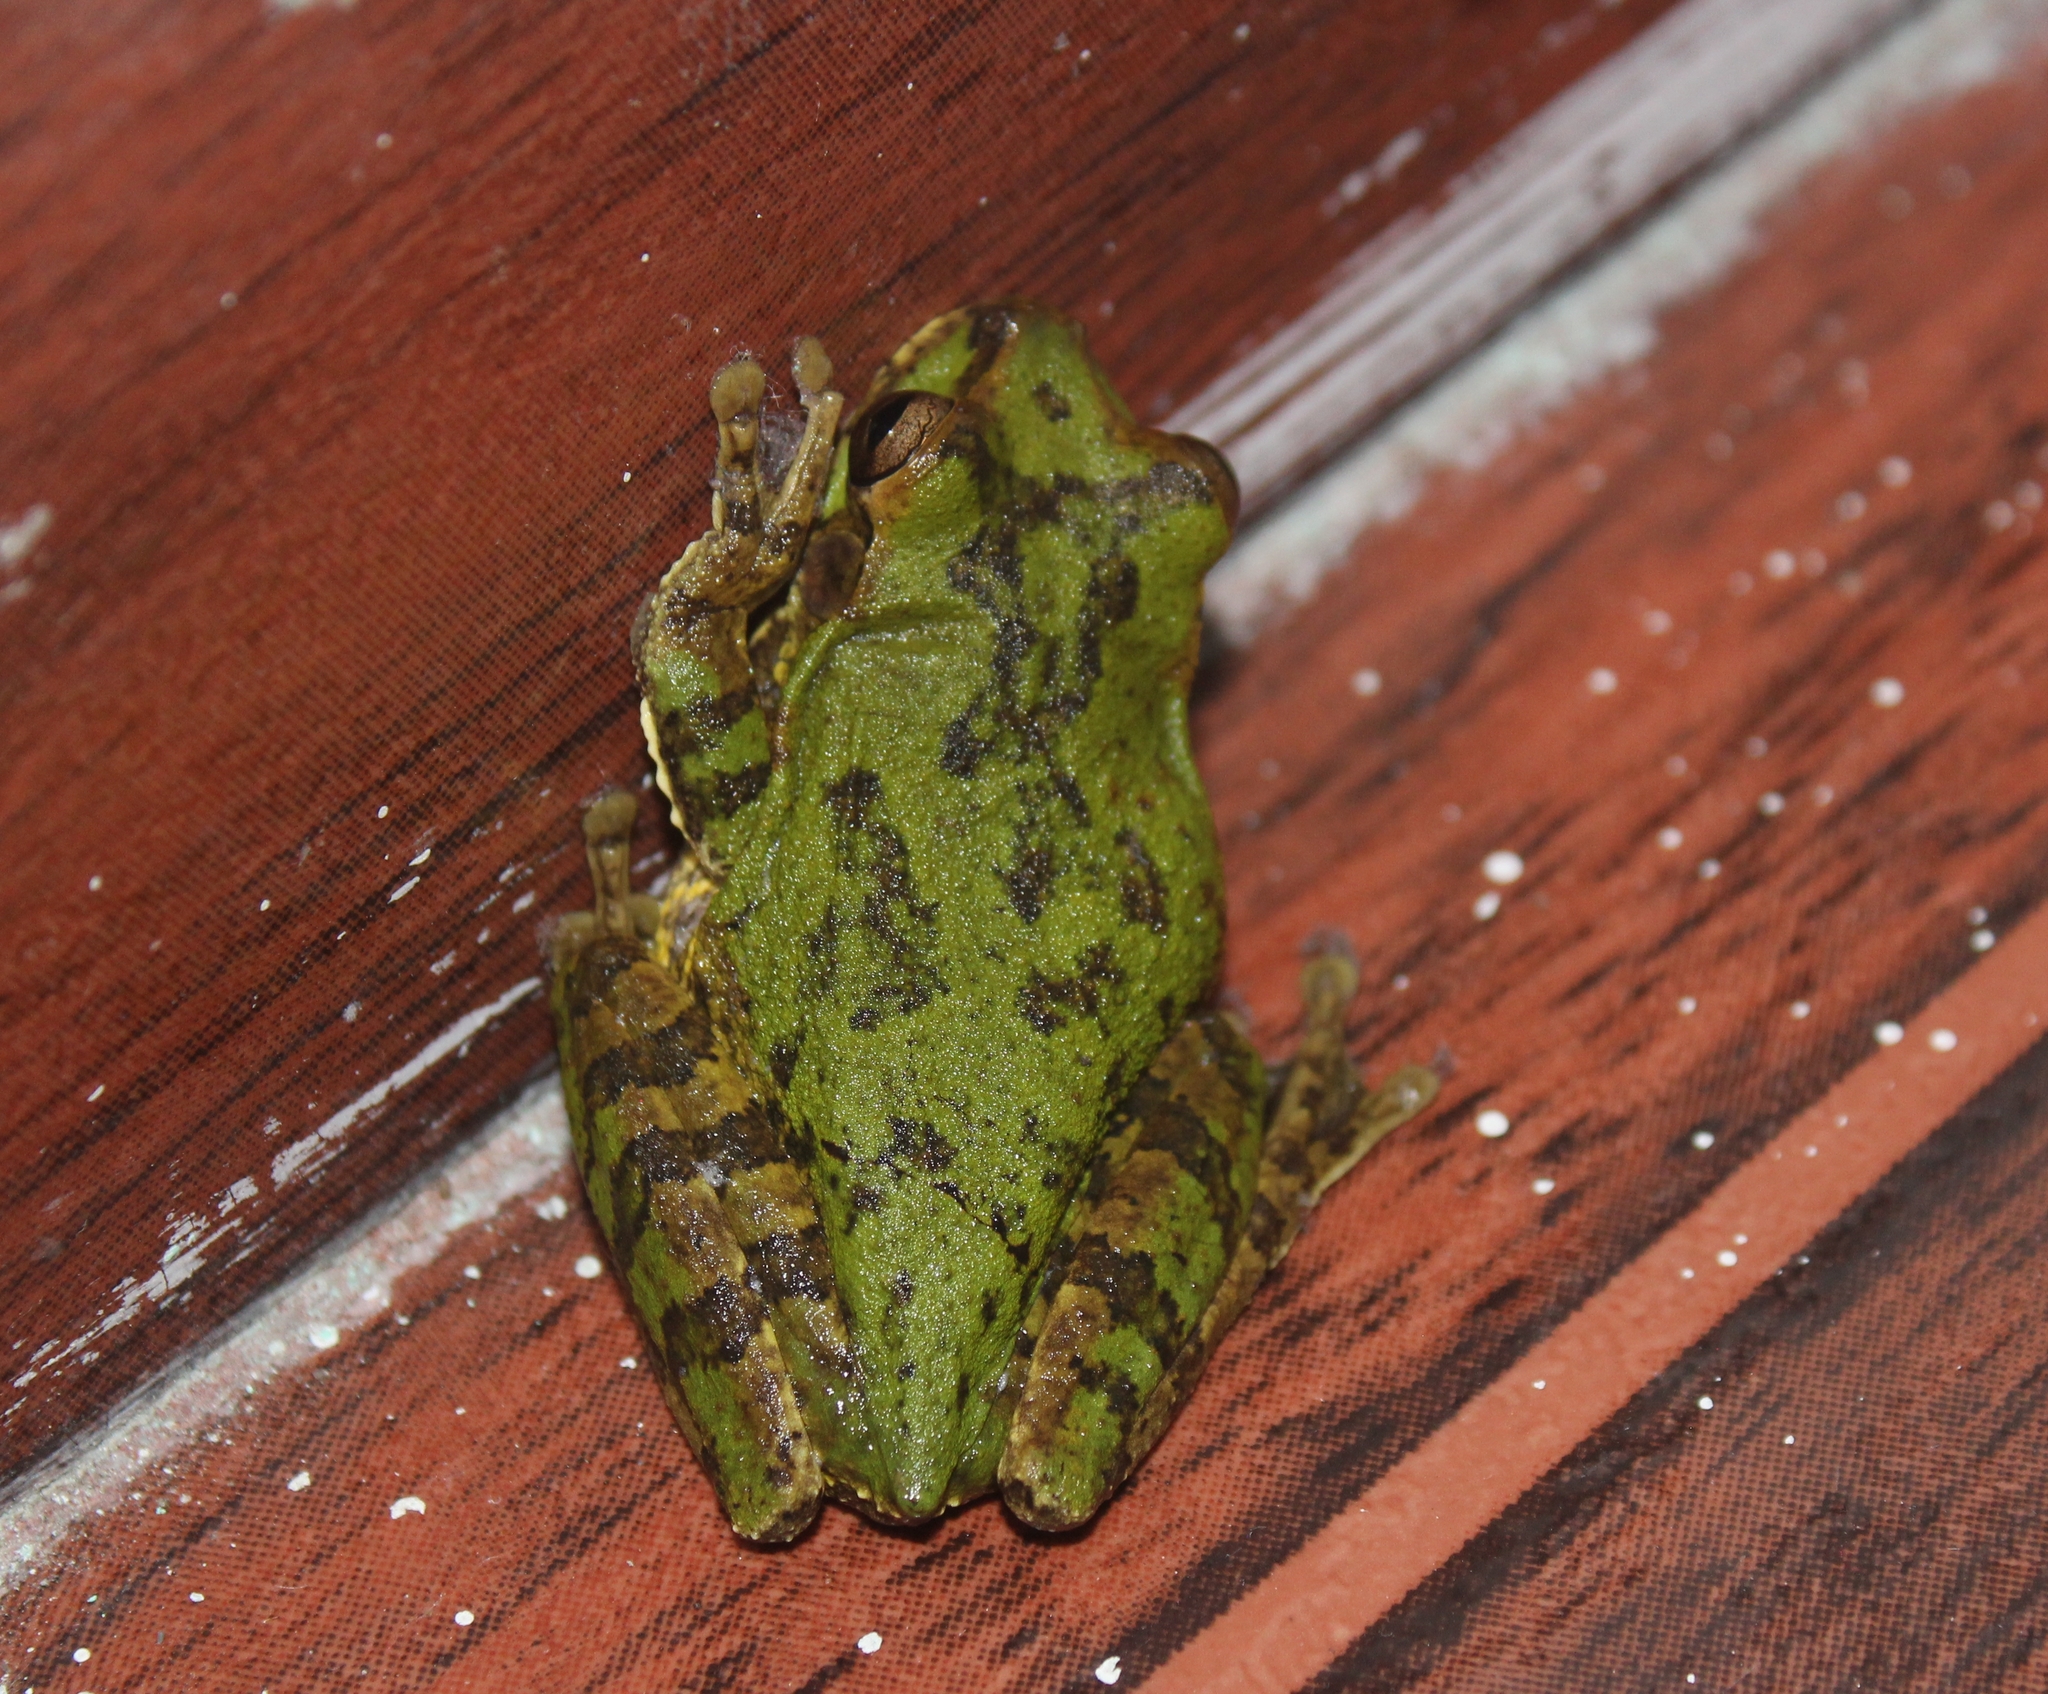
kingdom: Animalia
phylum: Chordata
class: Amphibia
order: Anura
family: Hylidae
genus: Smilisca
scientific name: Smilisca baudinii
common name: Mexican smilisca
